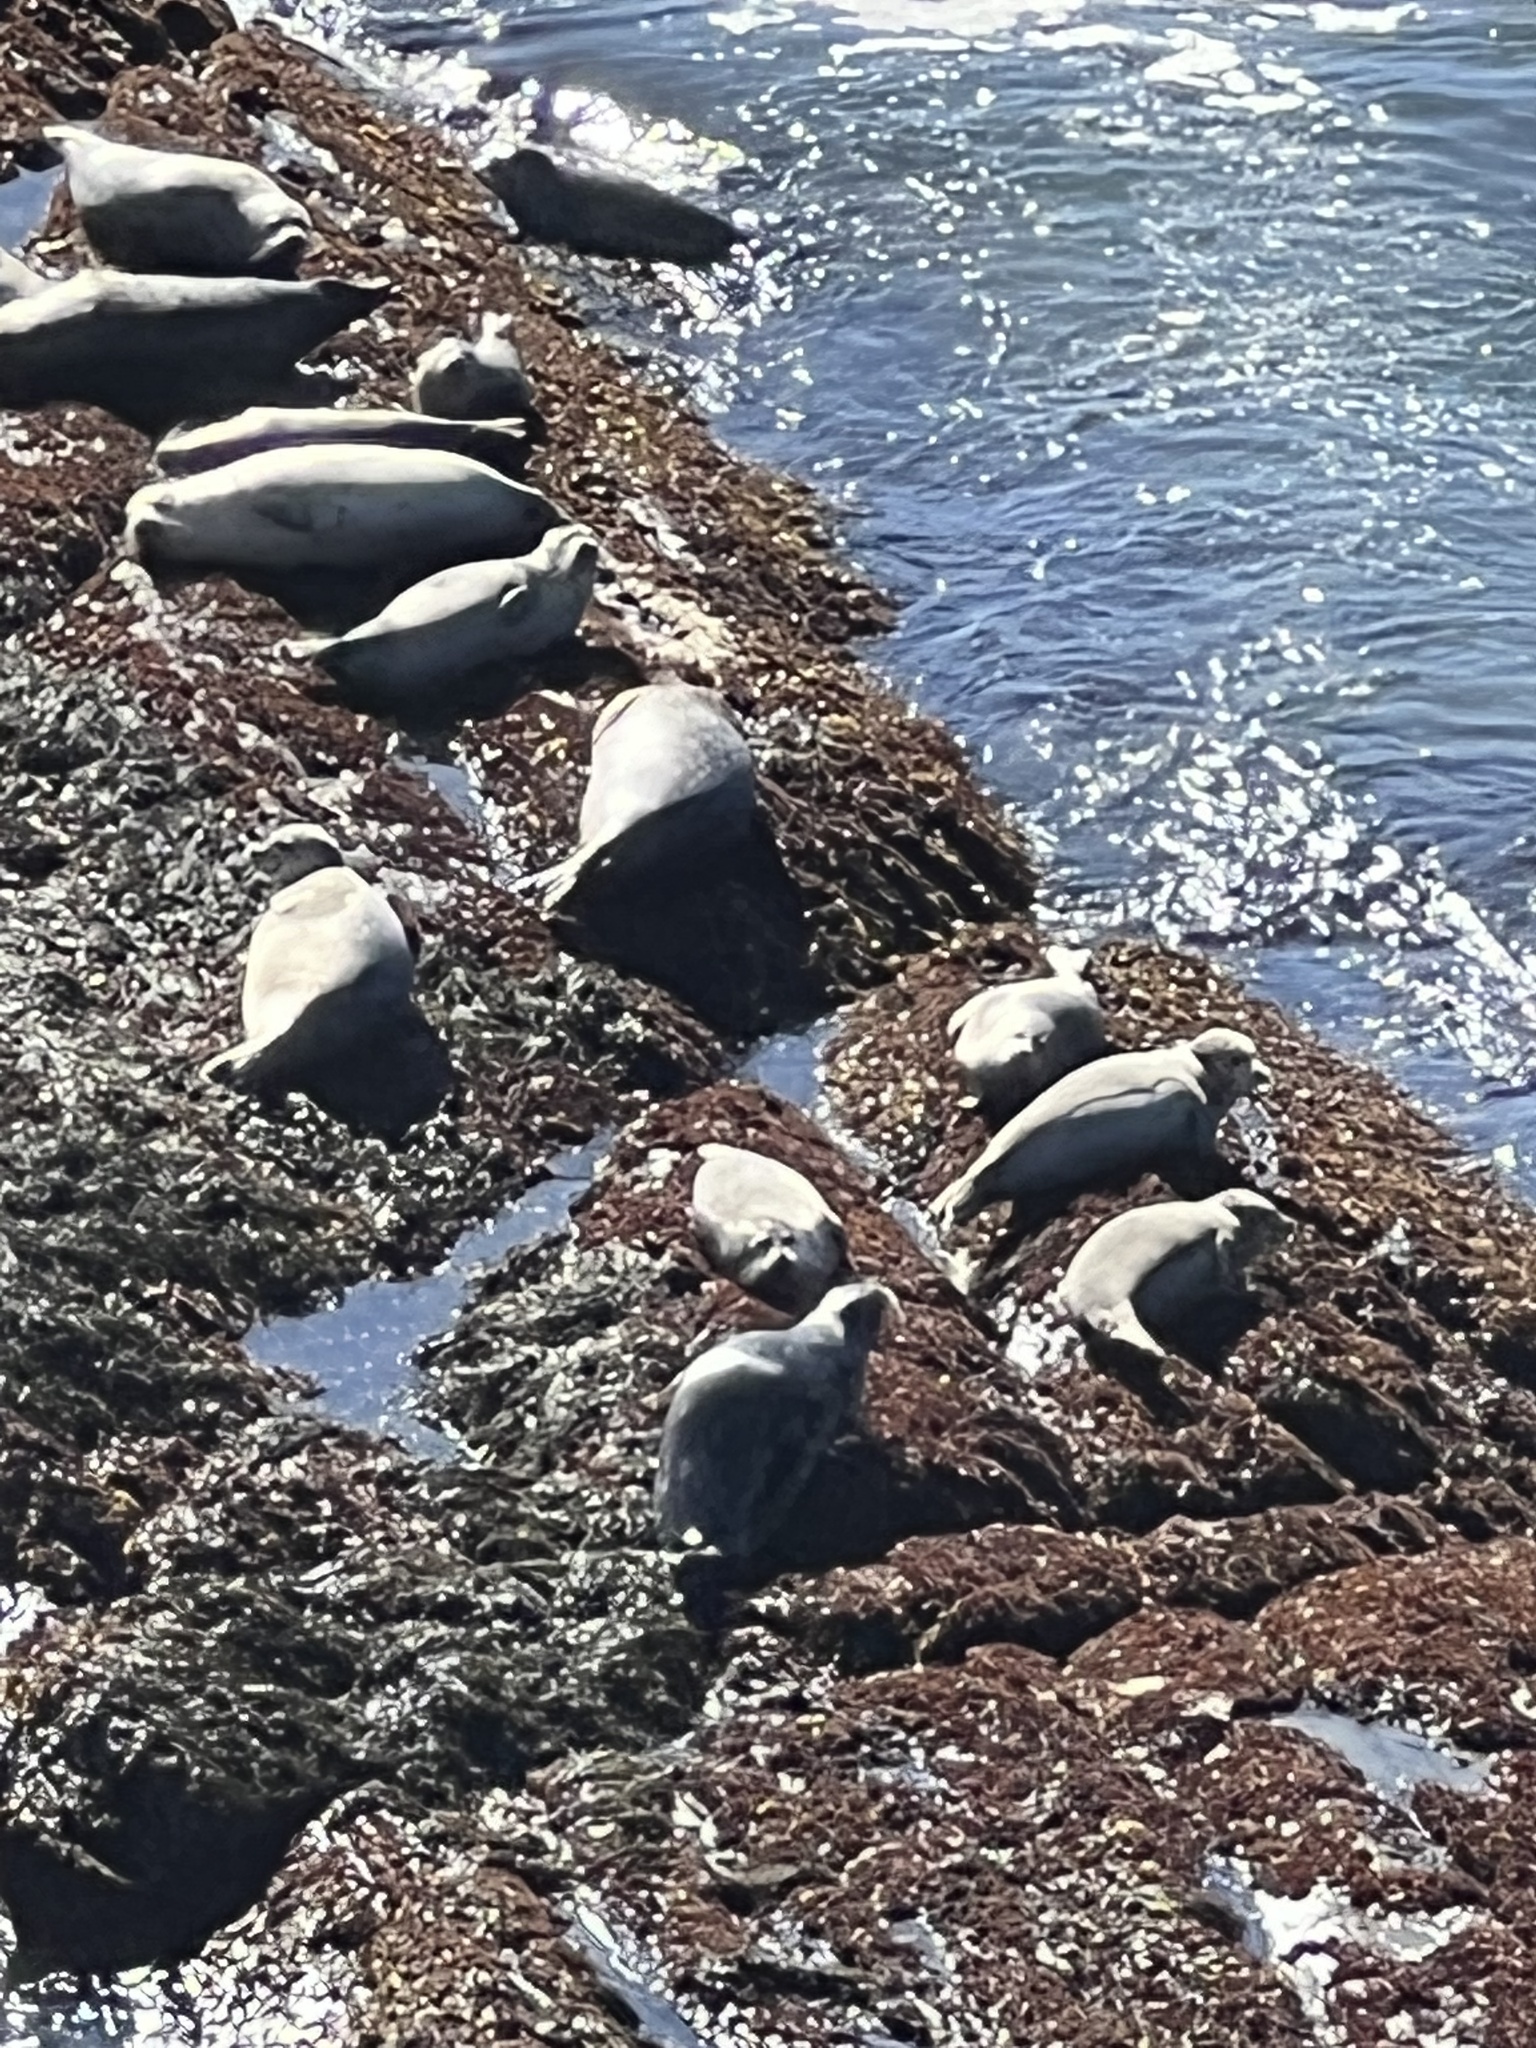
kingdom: Animalia
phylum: Chordata
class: Mammalia
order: Carnivora
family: Phocidae
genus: Phoca
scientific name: Phoca vitulina
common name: Harbor seal
